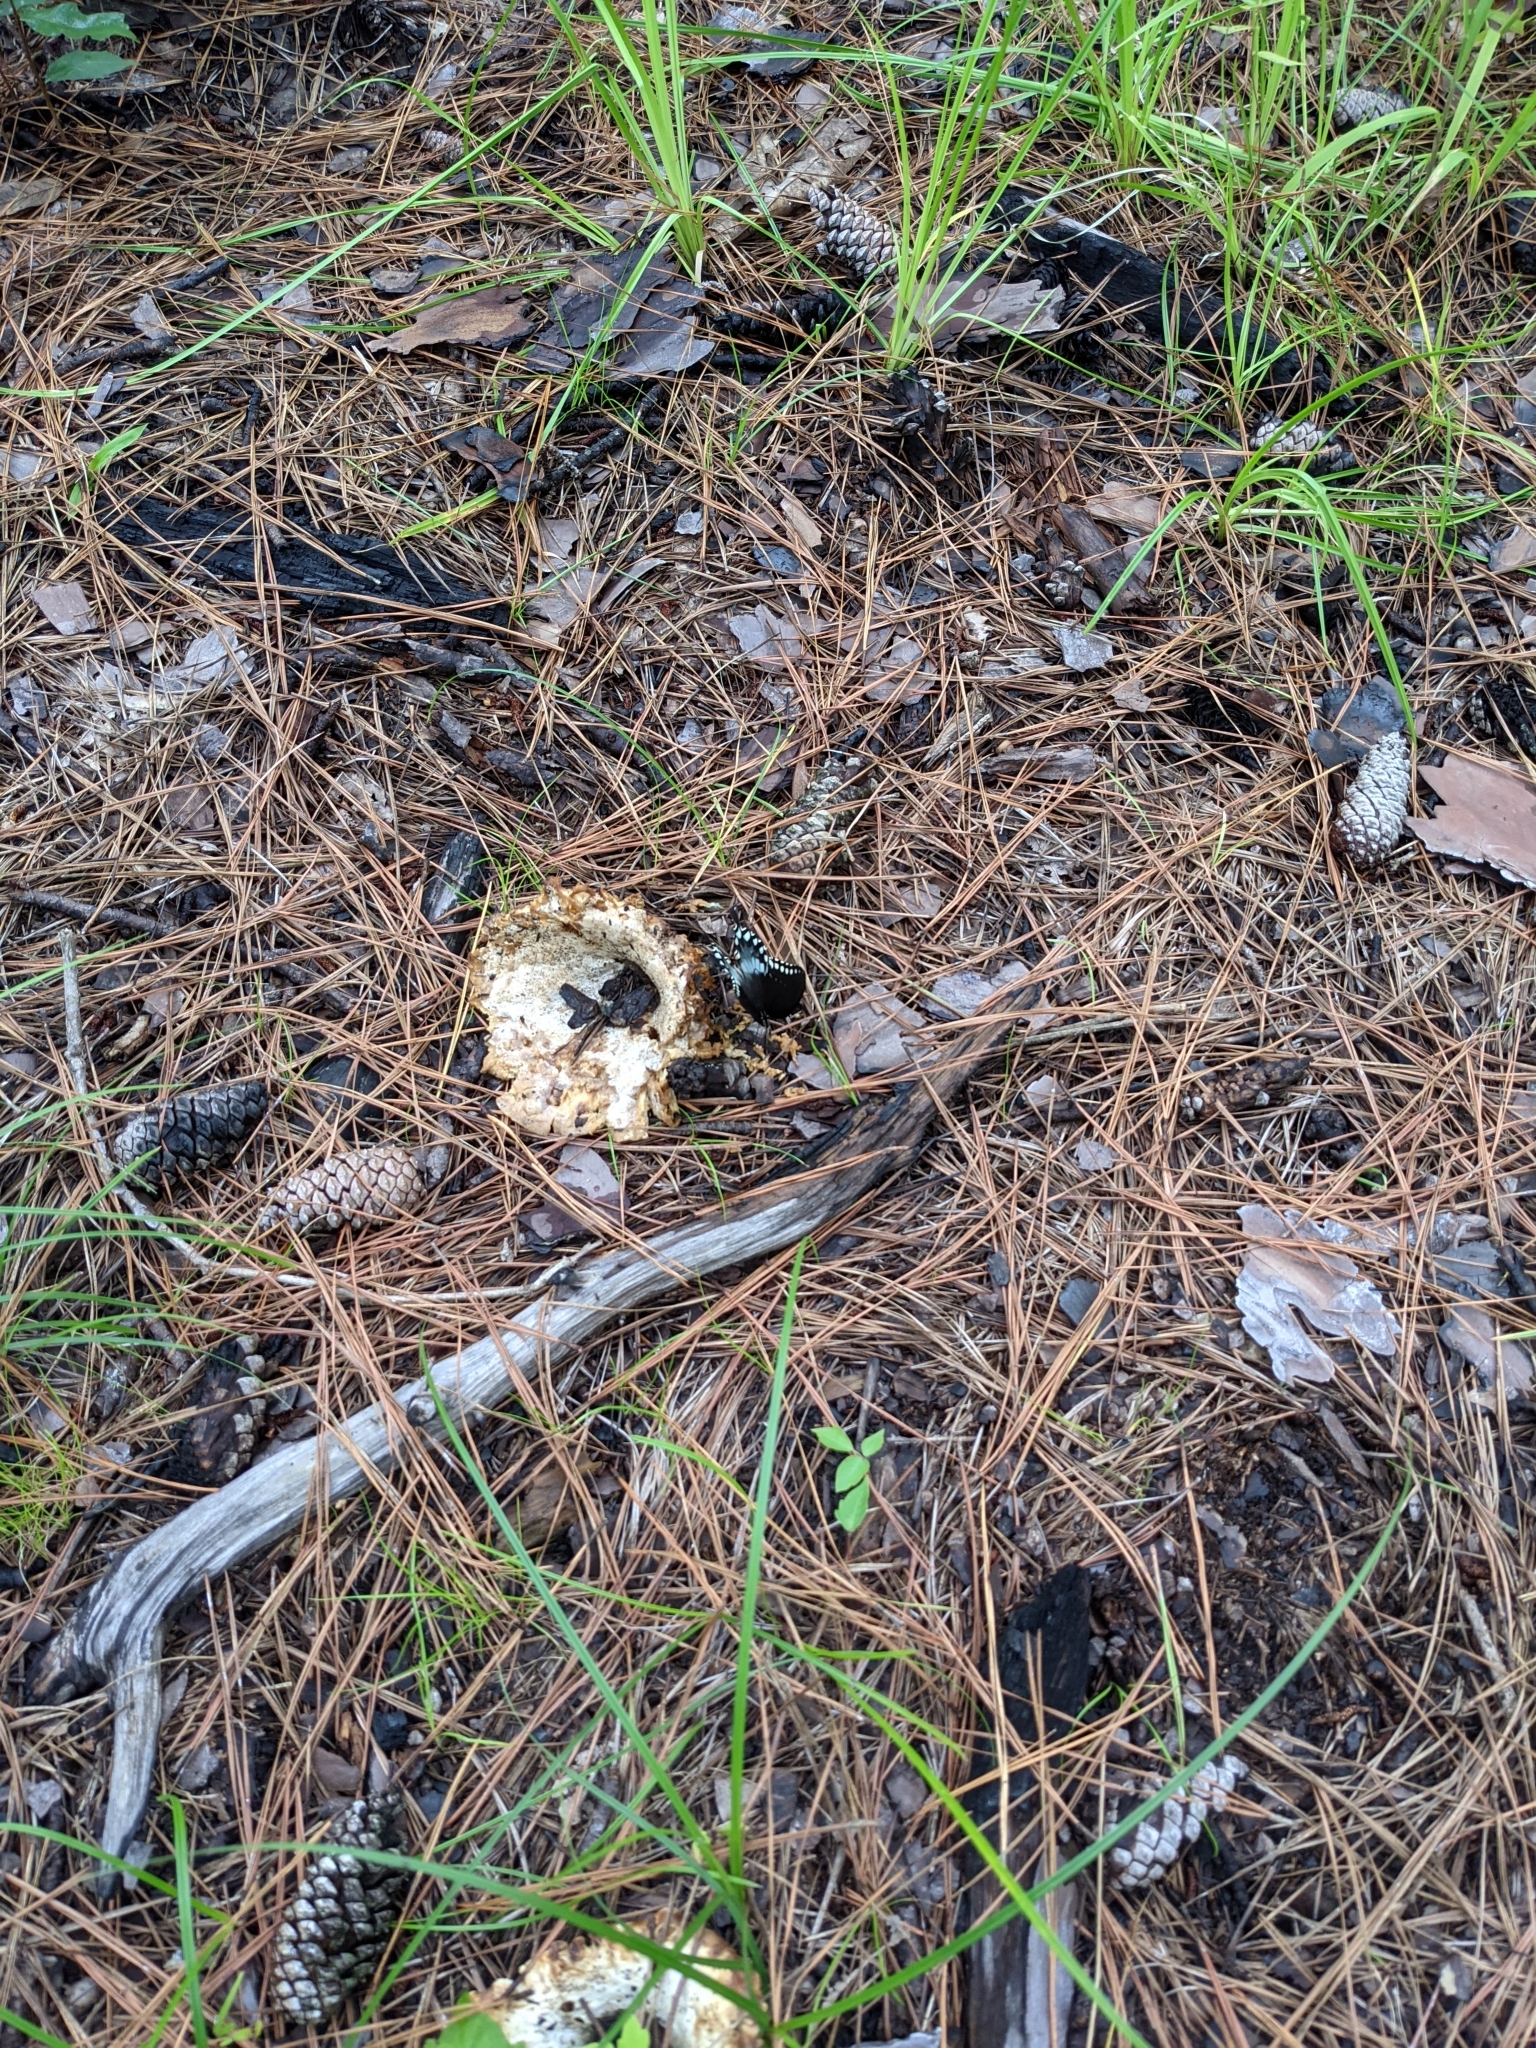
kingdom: Animalia
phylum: Arthropoda
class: Insecta
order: Lepidoptera
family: Papilionidae
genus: Papilio
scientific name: Papilio troilus
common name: Spicebush swallowtail
